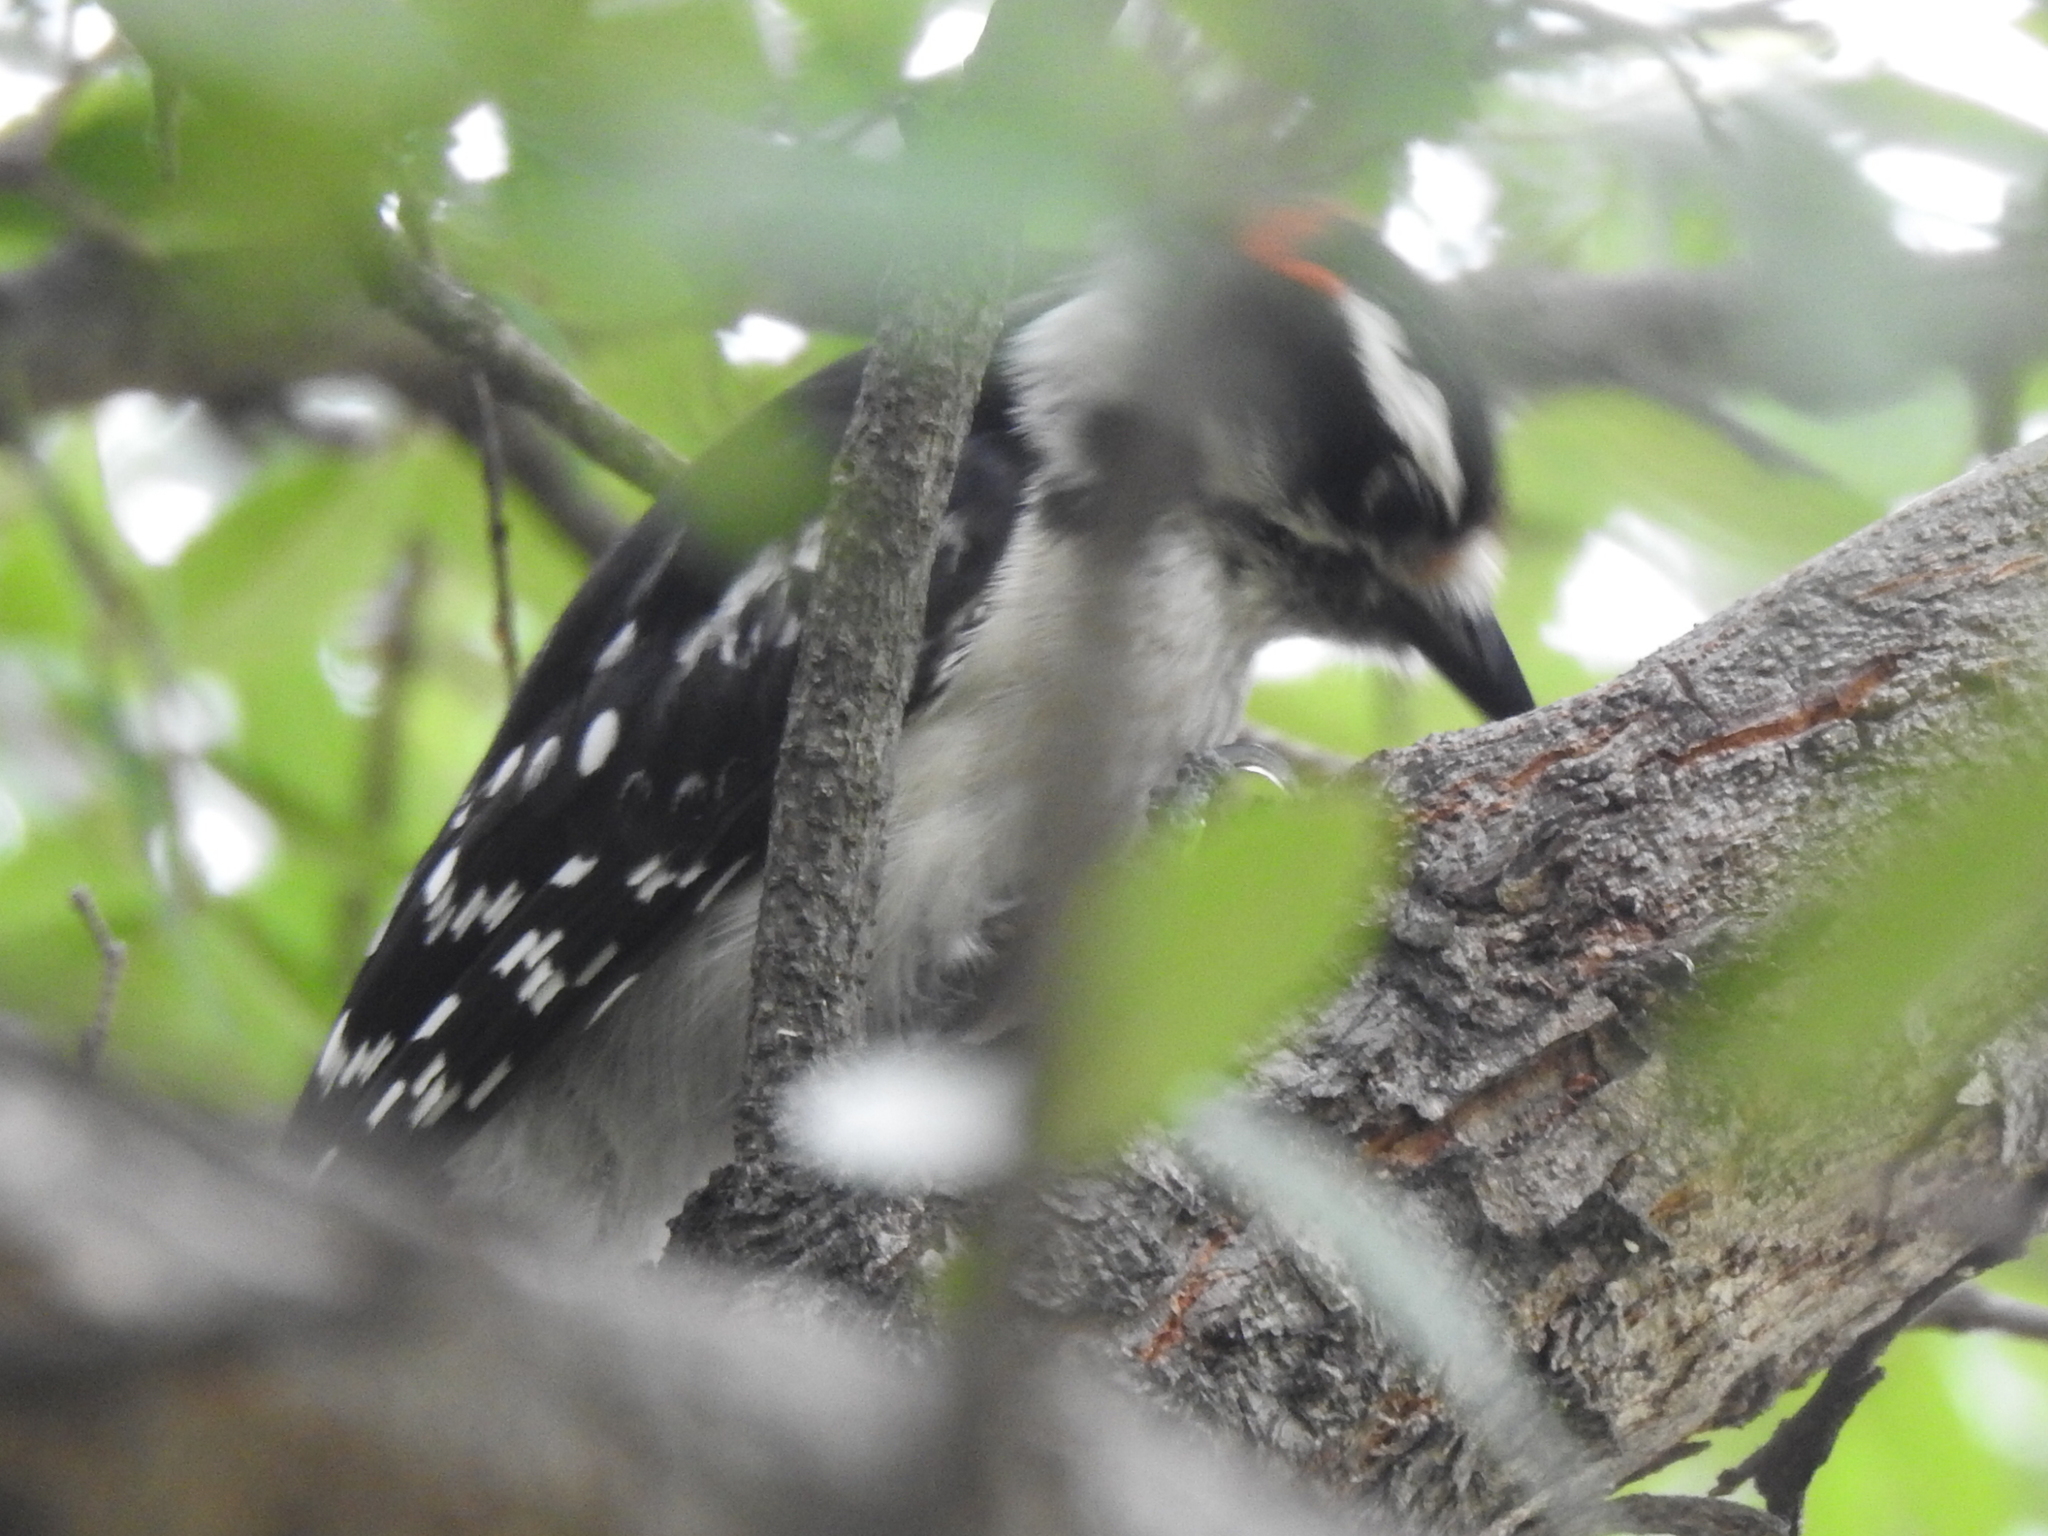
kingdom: Animalia
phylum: Chordata
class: Aves
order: Piciformes
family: Picidae
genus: Dryobates
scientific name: Dryobates pubescens
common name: Downy woodpecker
